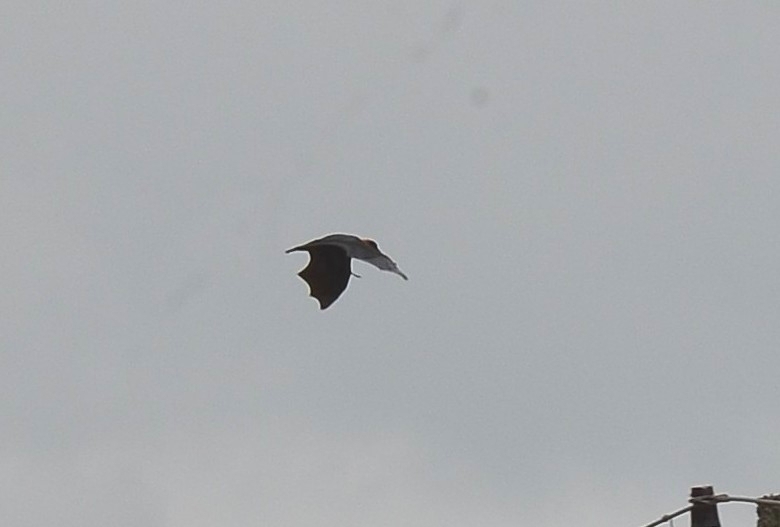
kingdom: Animalia
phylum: Chordata
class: Mammalia
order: Chiroptera
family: Pteropodidae
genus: Pteropus
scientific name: Pteropus vampyrus
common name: Large flying fox
